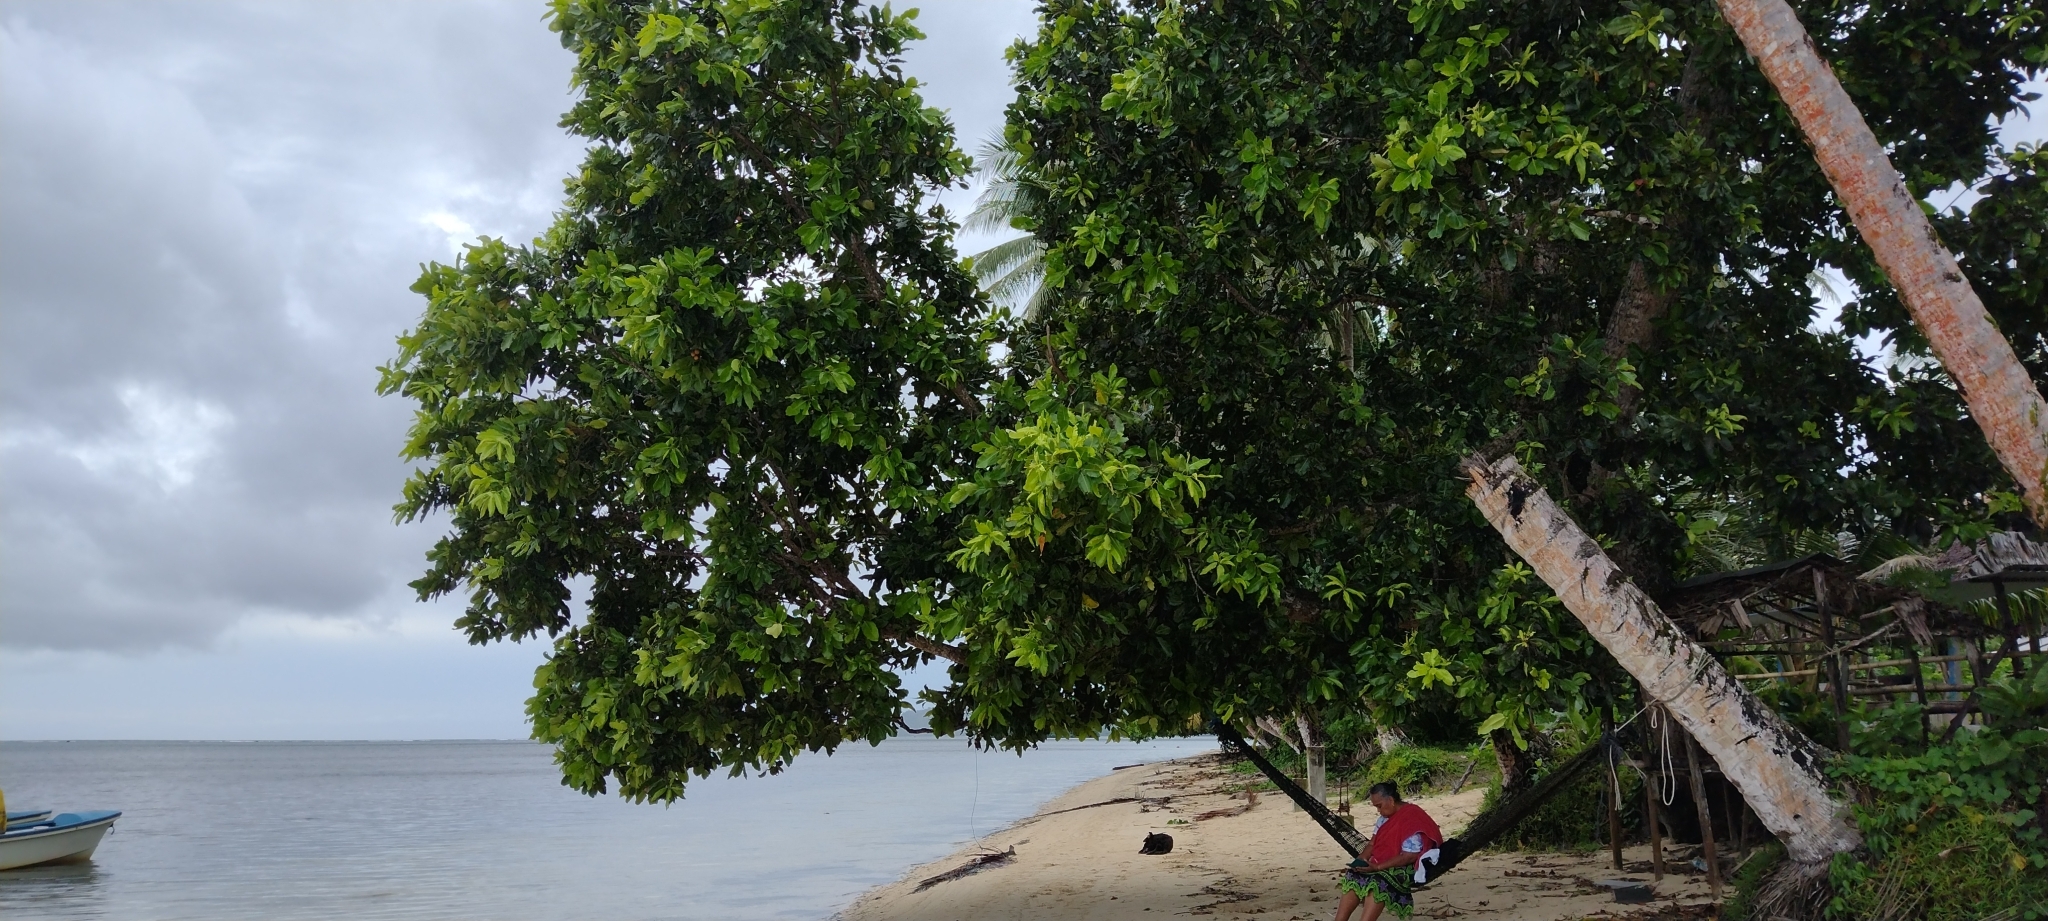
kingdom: Plantae
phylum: Tracheophyta
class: Magnoliopsida
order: Malpighiales
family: Calophyllaceae
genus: Calophyllum
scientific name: Calophyllum inophyllum
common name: Alexandrian laurel
